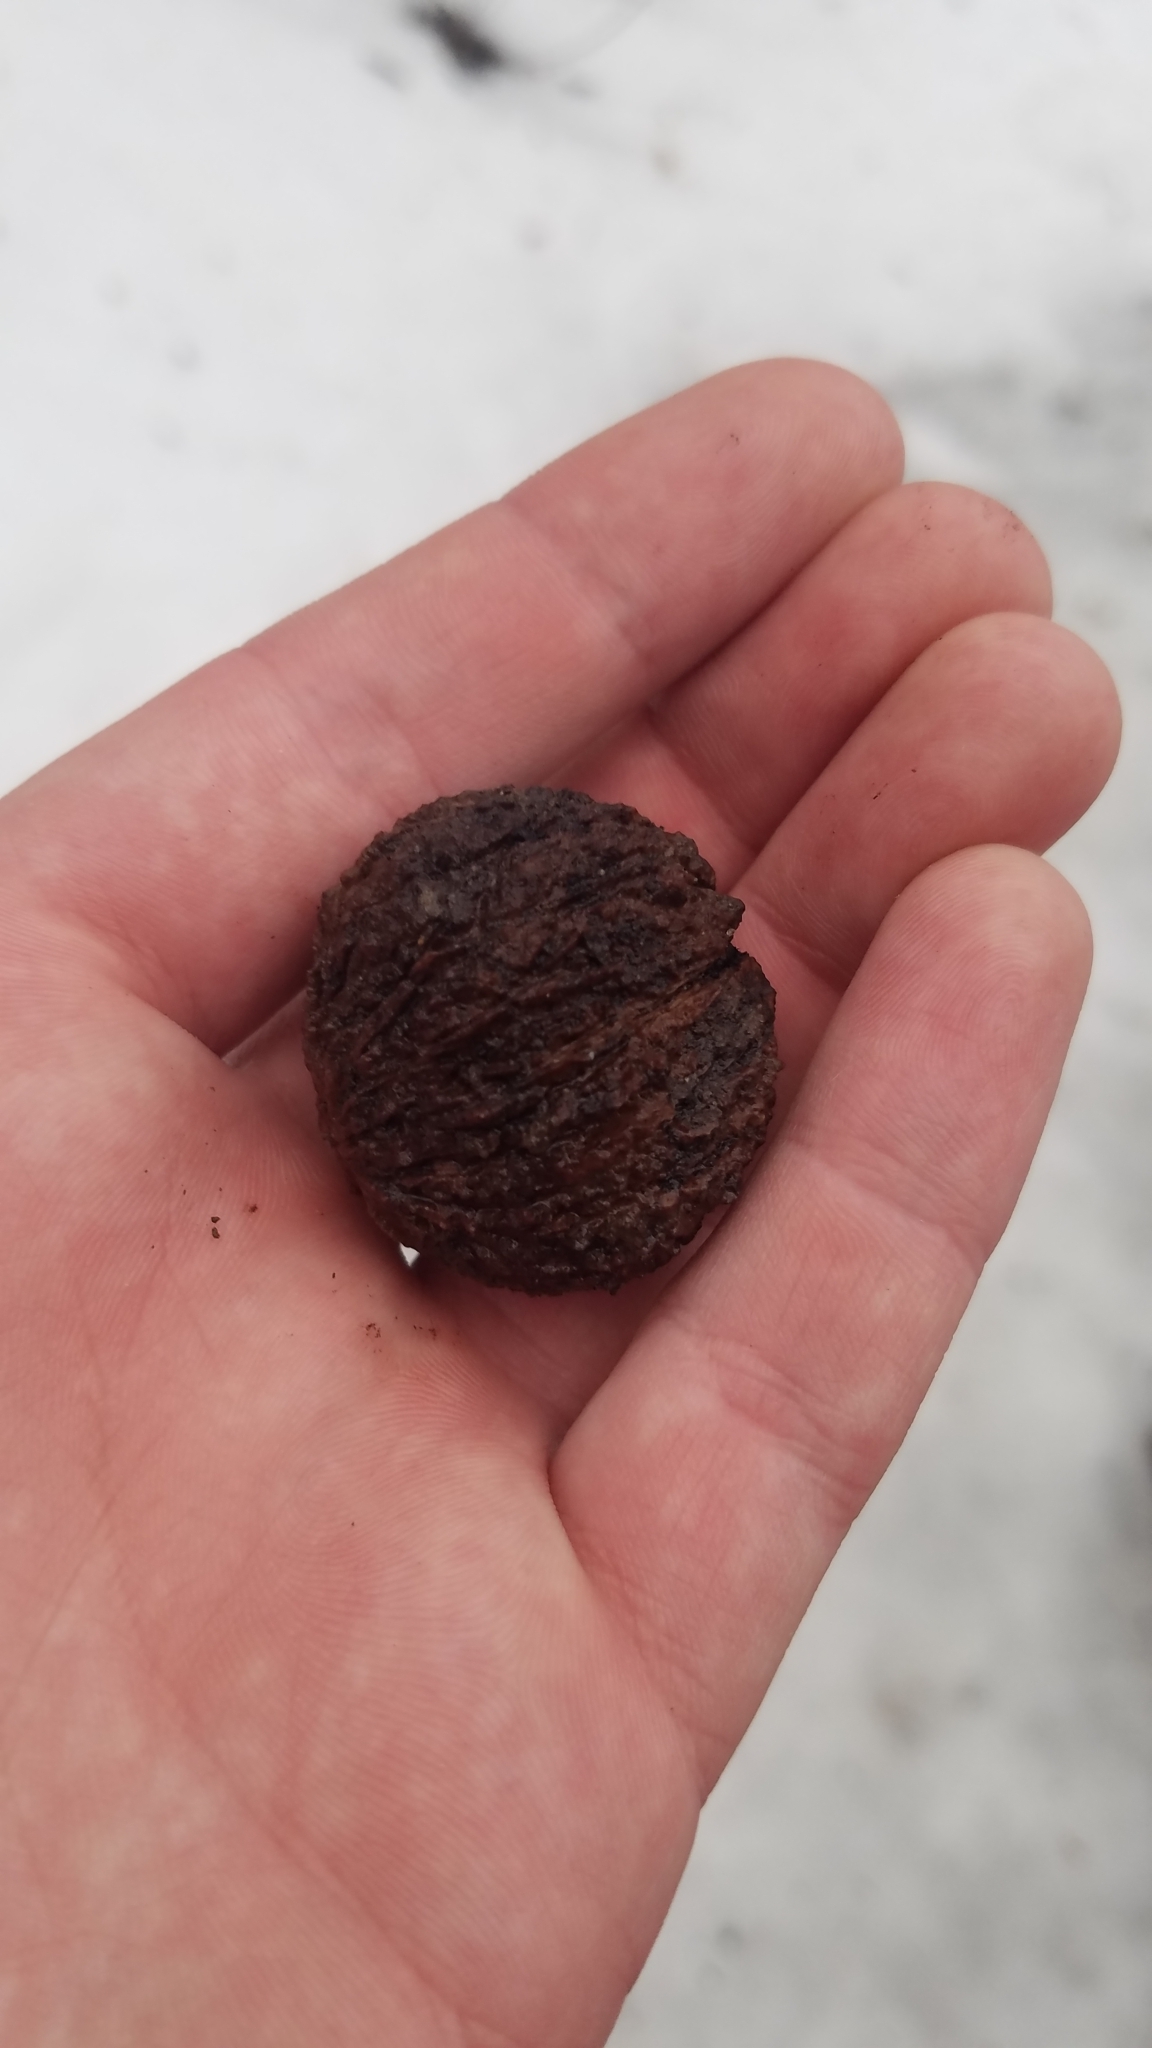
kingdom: Plantae
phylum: Tracheophyta
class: Magnoliopsida
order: Fagales
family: Juglandaceae
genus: Juglans
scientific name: Juglans nigra
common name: Black walnut
